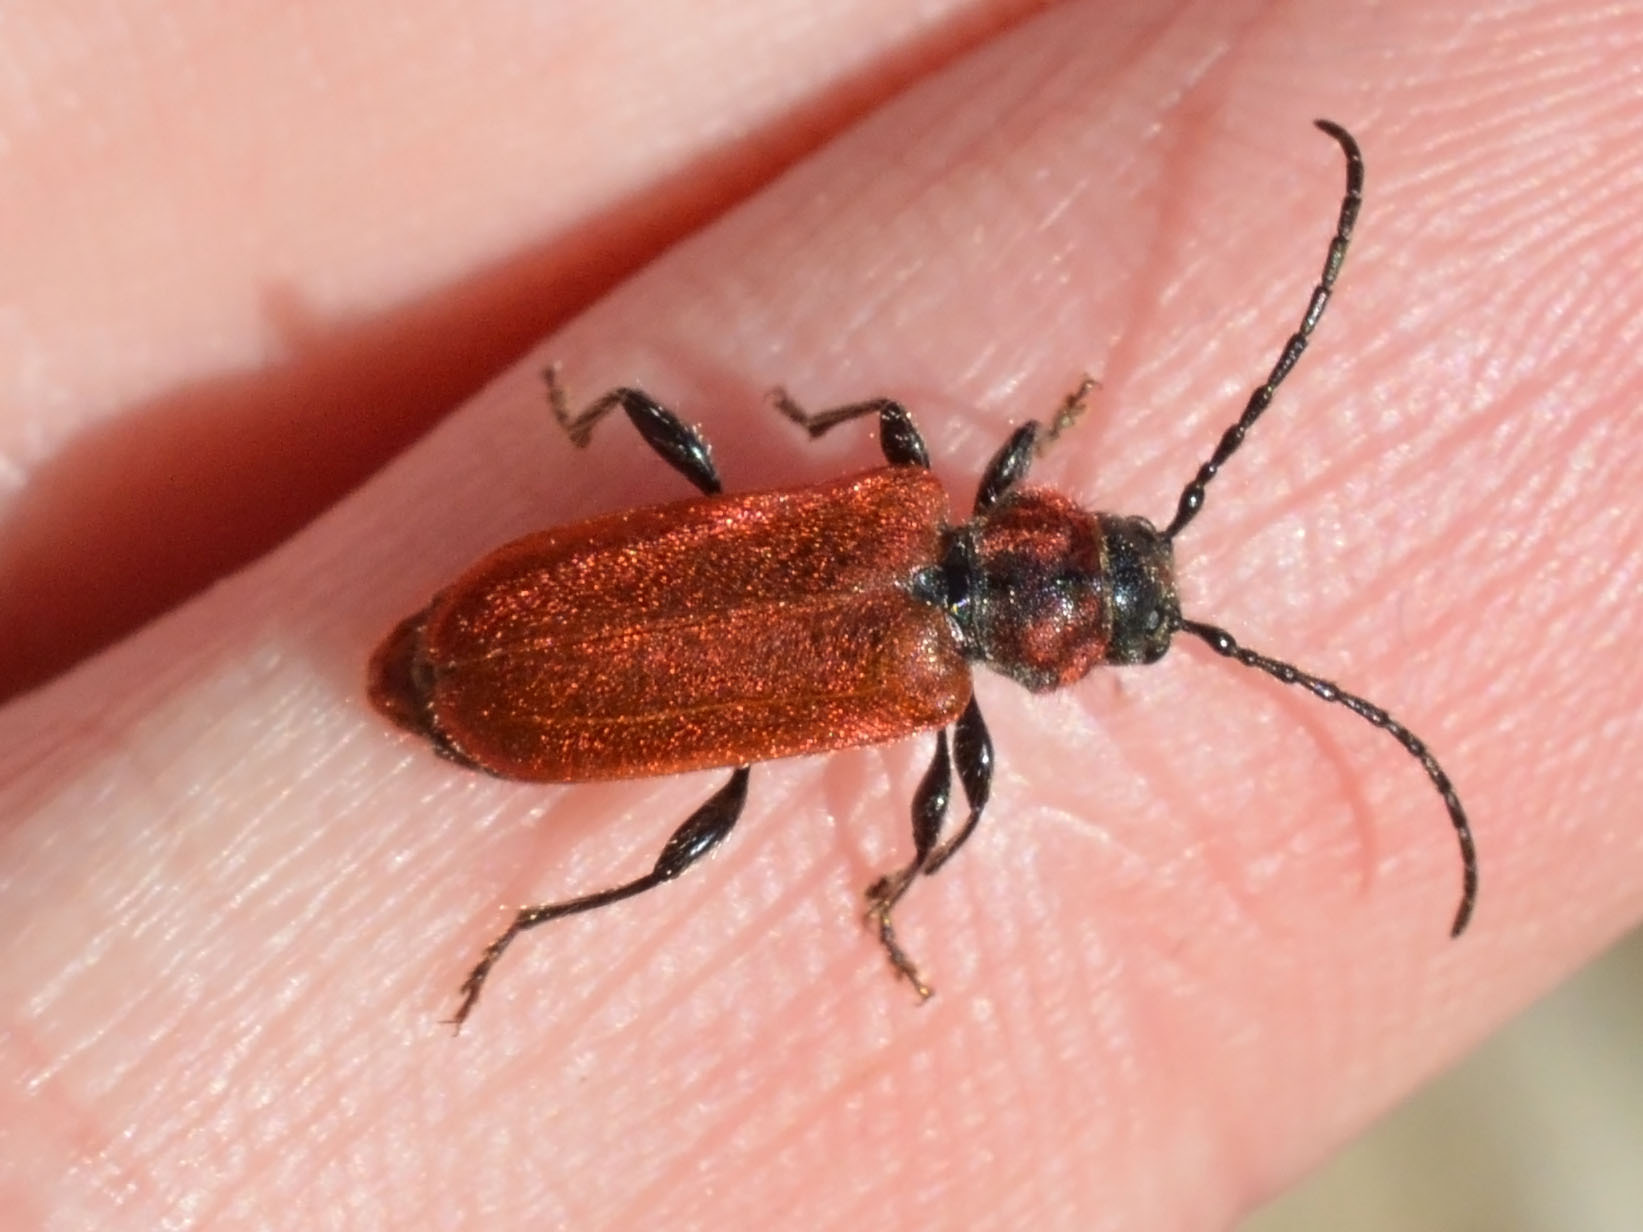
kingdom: Animalia
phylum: Arthropoda
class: Insecta
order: Coleoptera
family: Cerambycidae
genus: Pyrrhidium
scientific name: Pyrrhidium sanguineum
